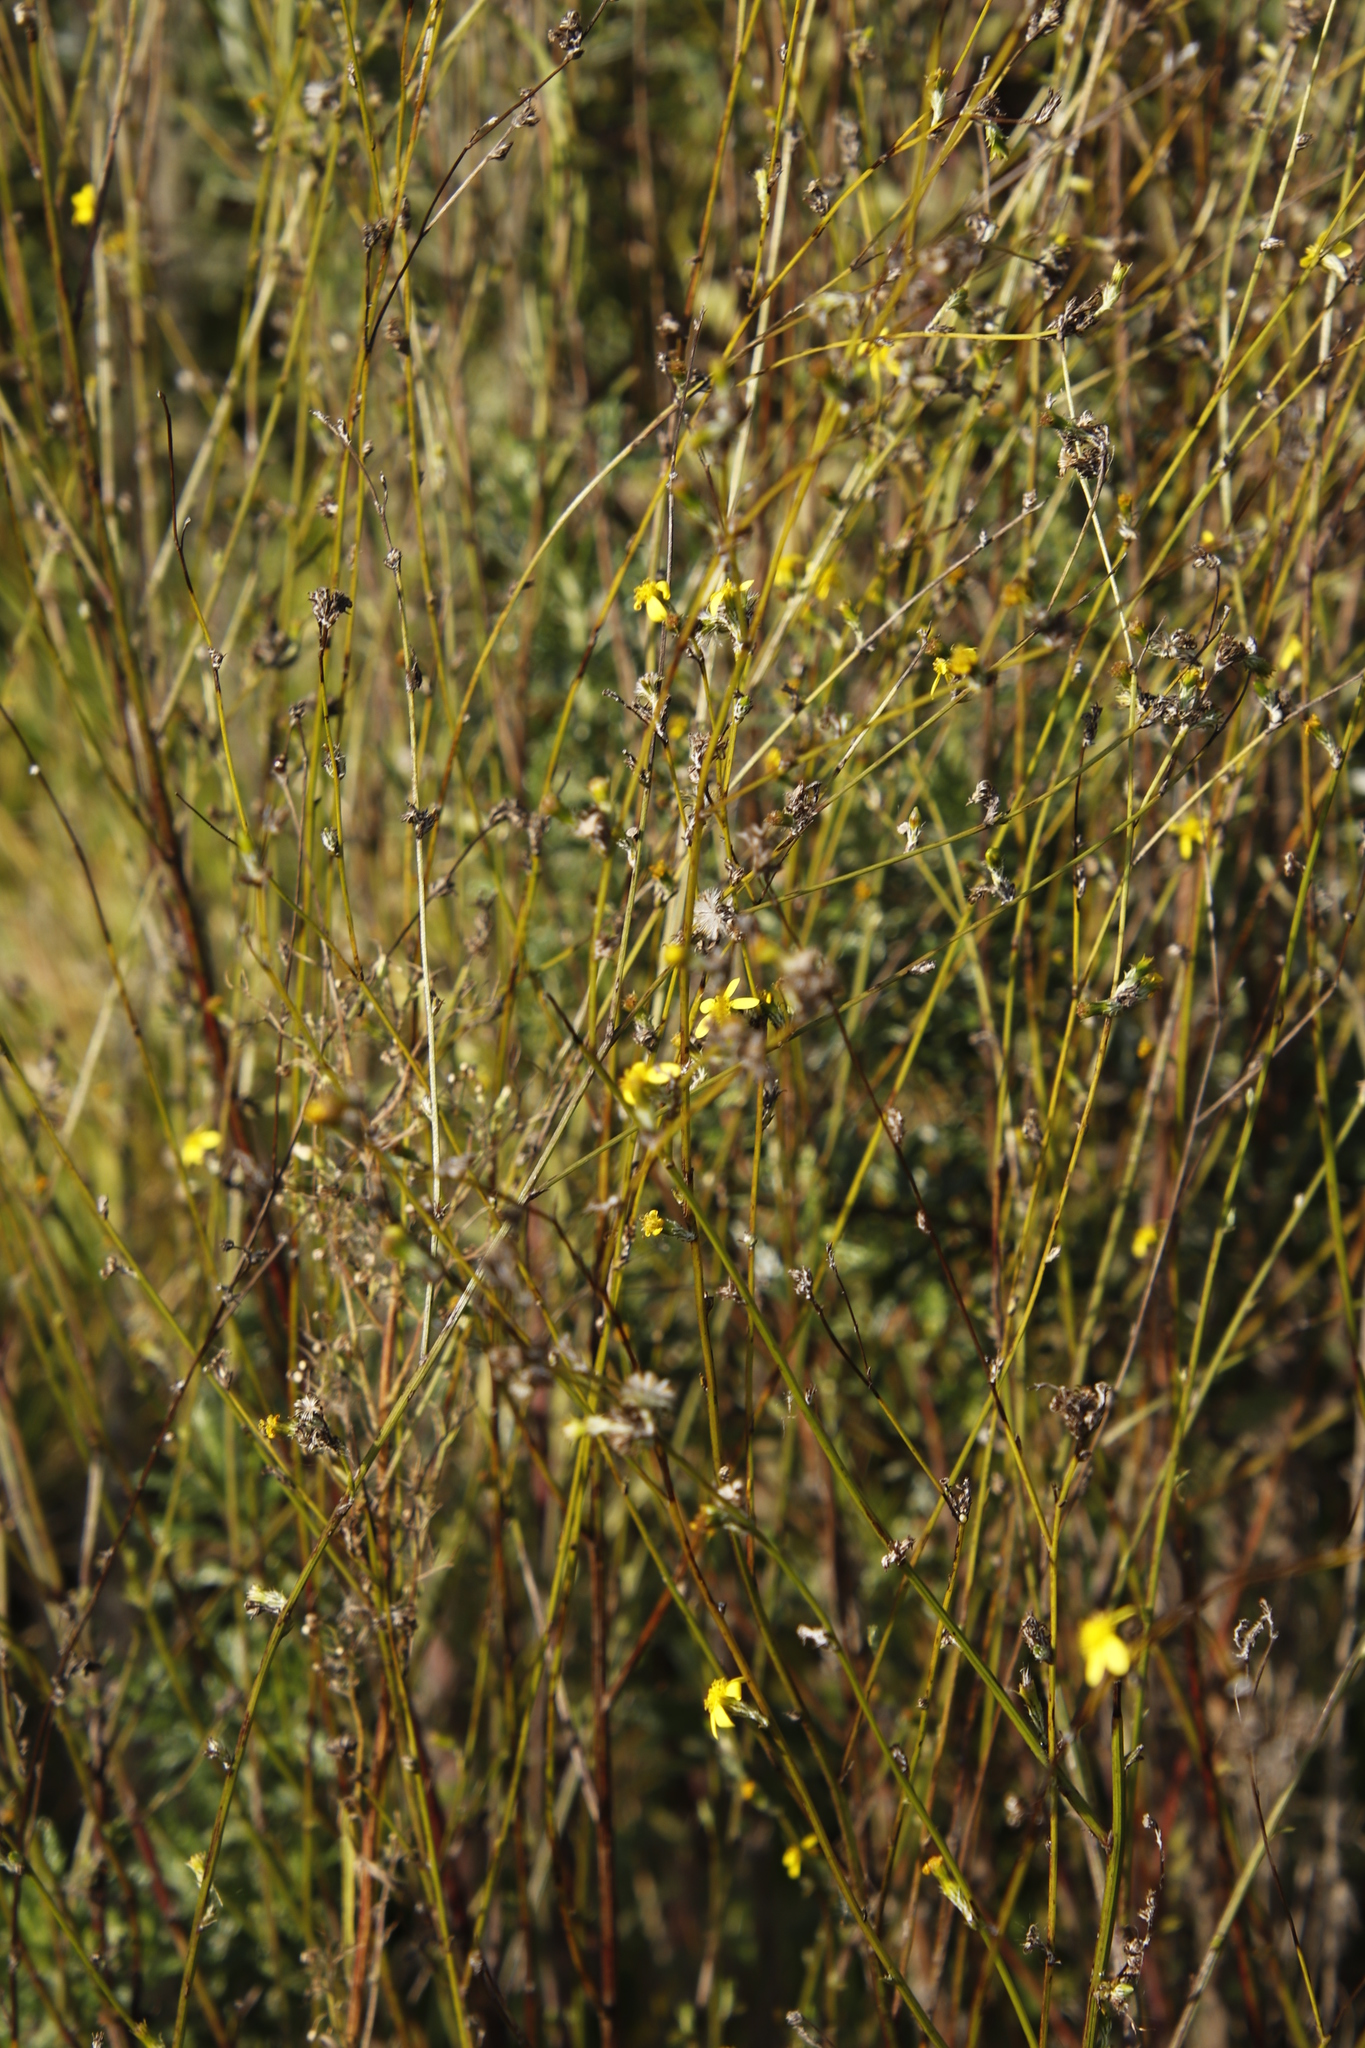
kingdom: Plantae
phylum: Tracheophyta
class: Magnoliopsida
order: Asterales
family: Asteraceae
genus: Senecio
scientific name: Senecio pubigerus
